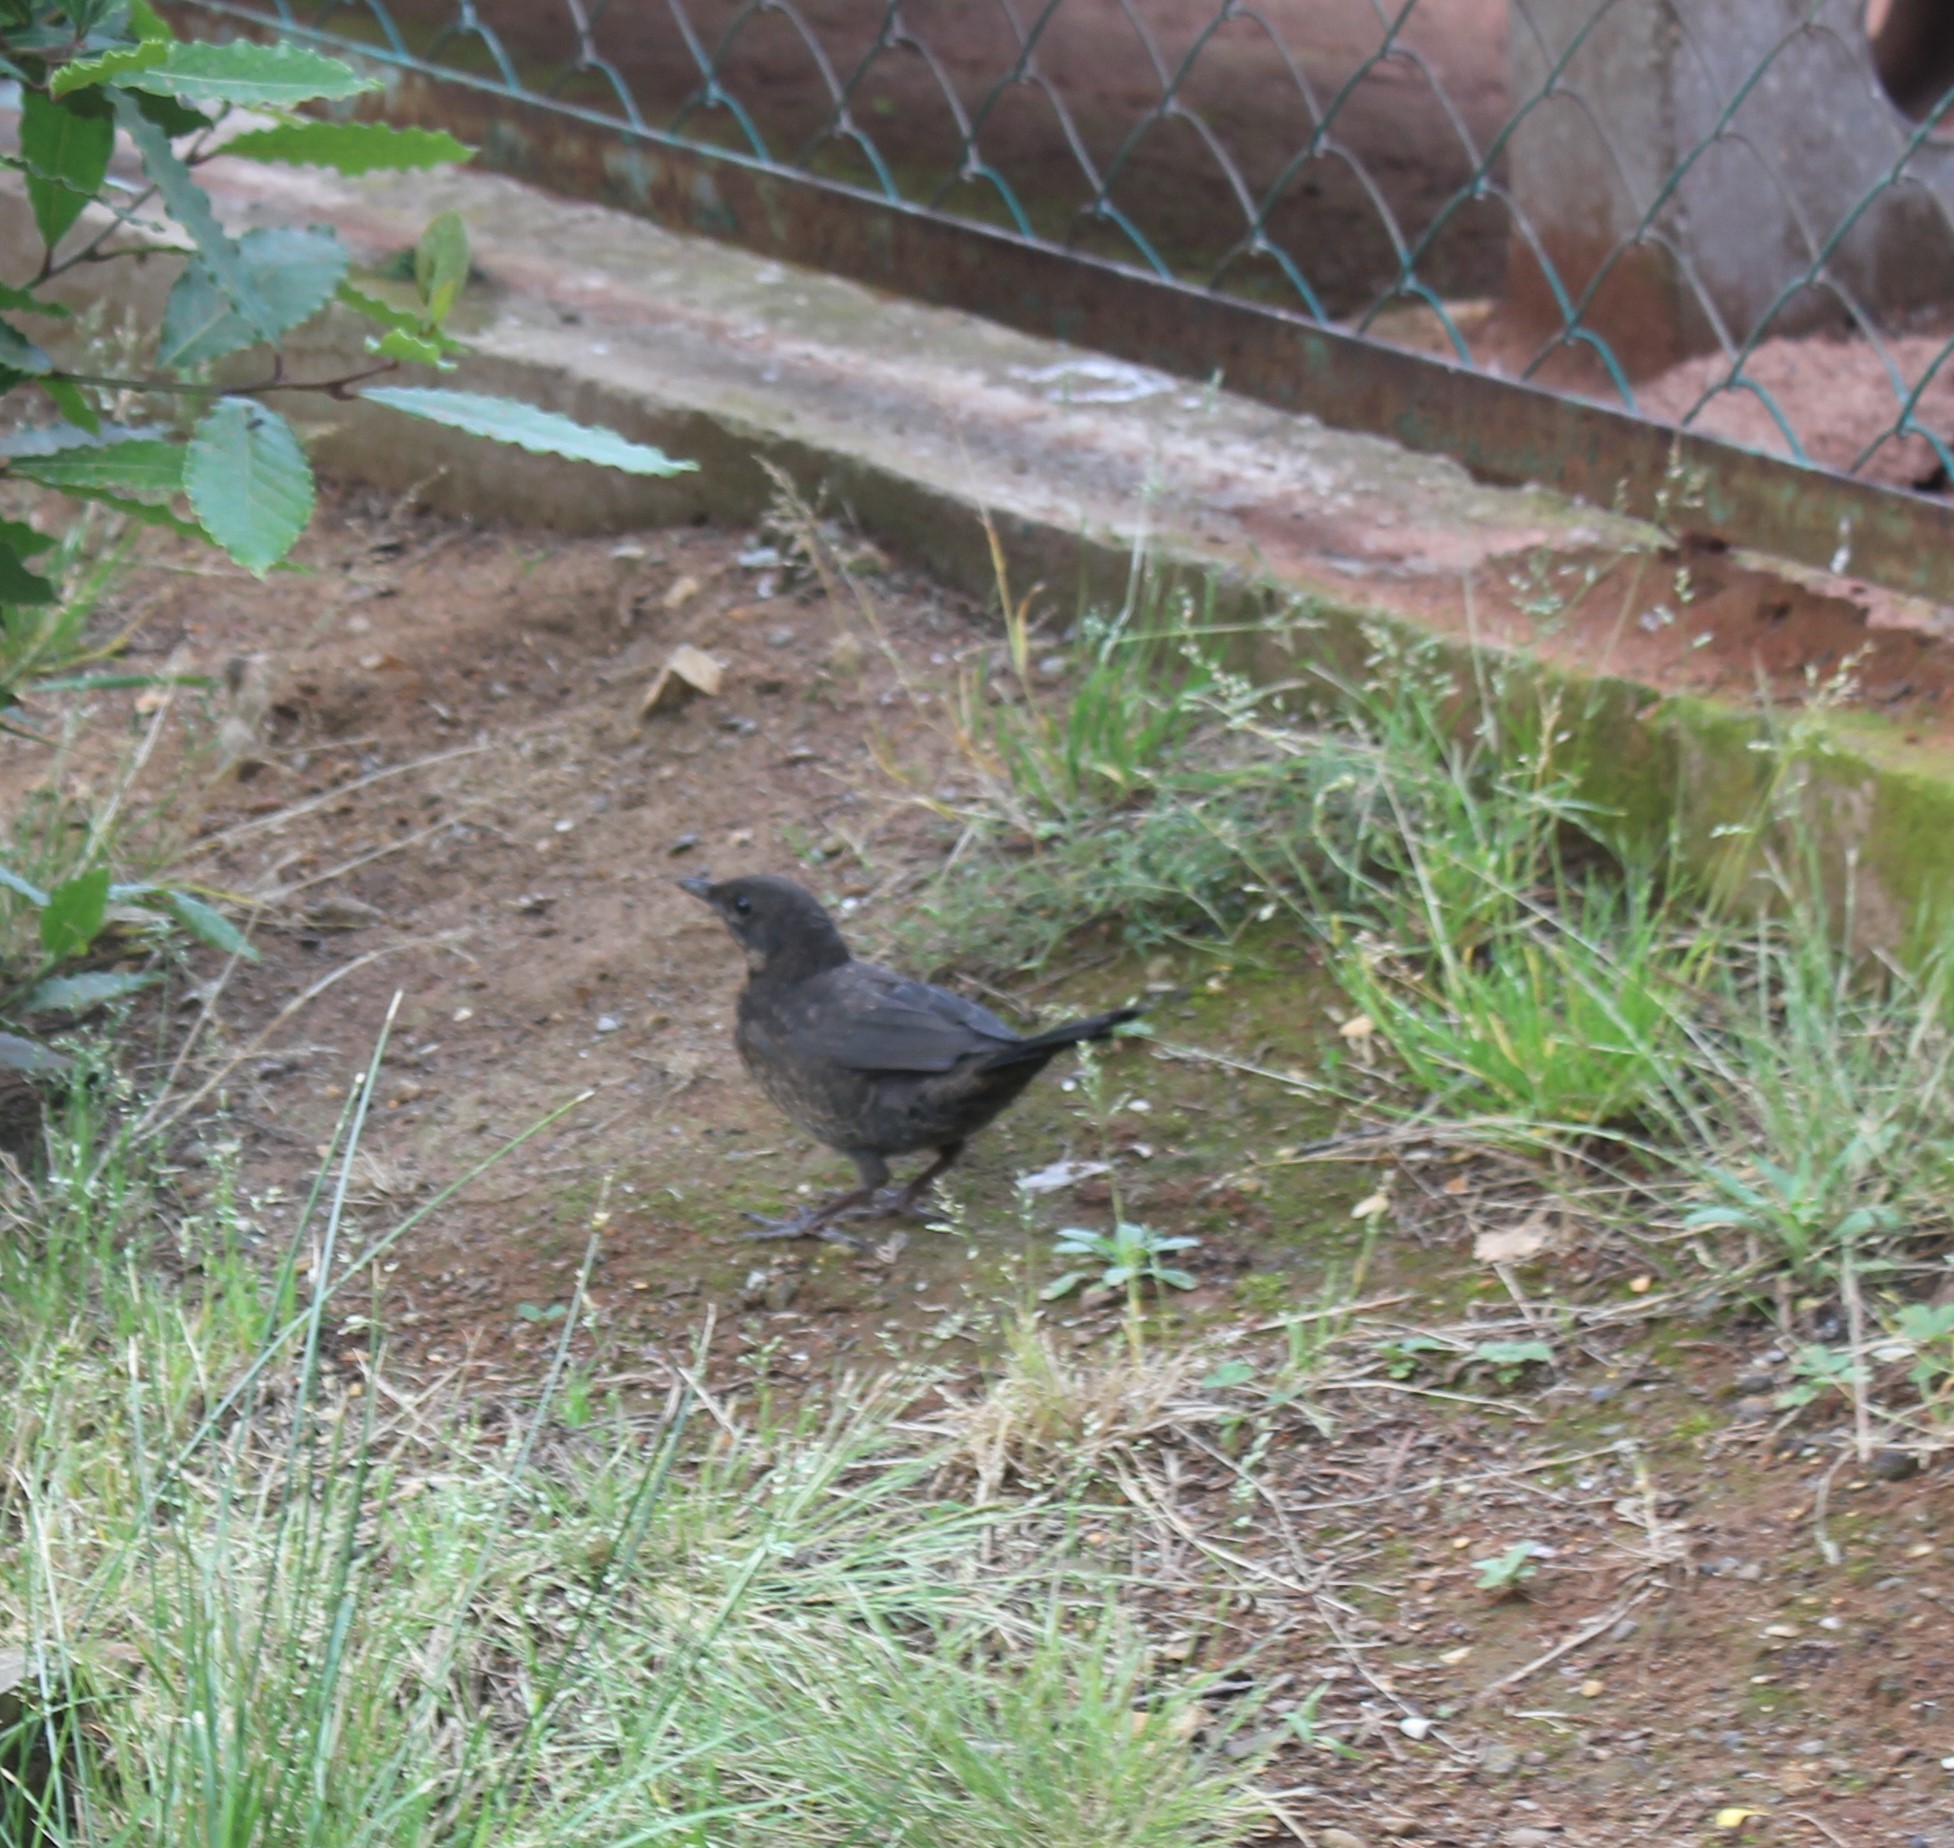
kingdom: Animalia
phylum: Chordata
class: Aves
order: Passeriformes
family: Turdidae
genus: Turdus
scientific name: Turdus merula
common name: Common blackbird
